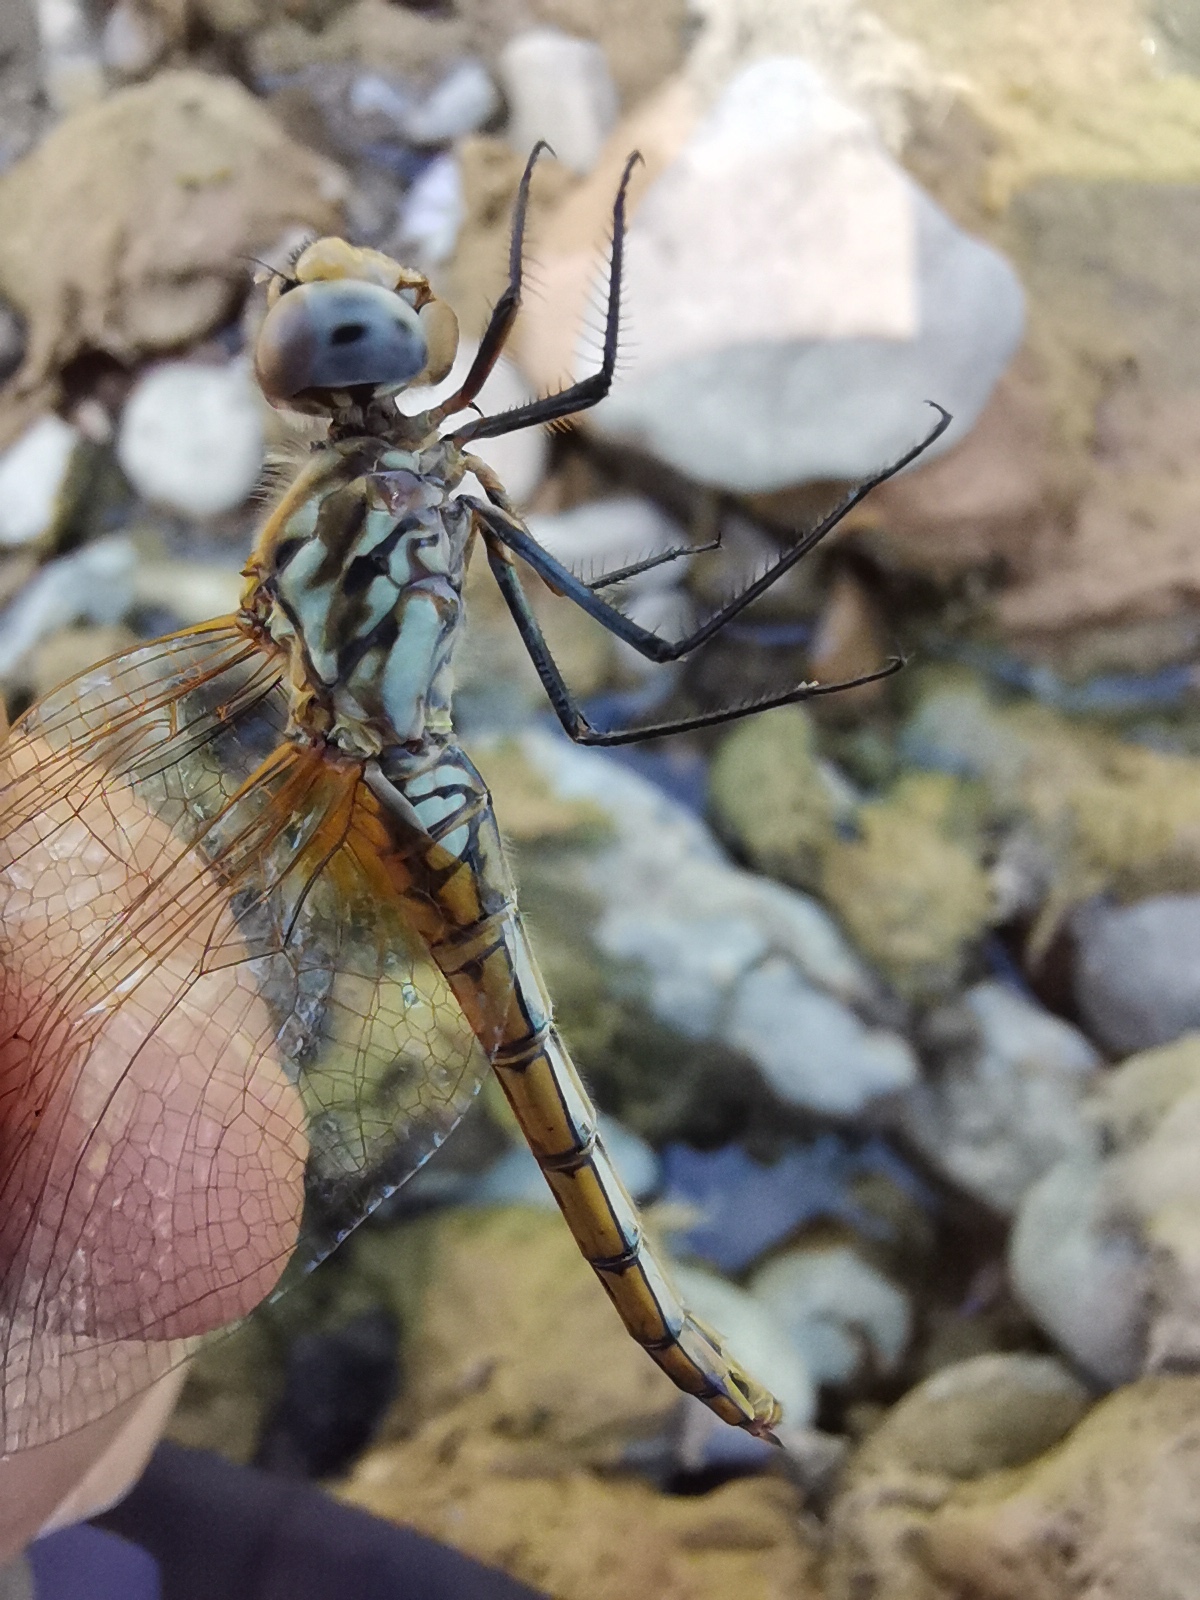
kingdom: Animalia
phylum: Arthropoda
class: Insecta
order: Odonata
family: Libellulidae
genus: Trithemis
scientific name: Trithemis annulata
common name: Violet dropwing
